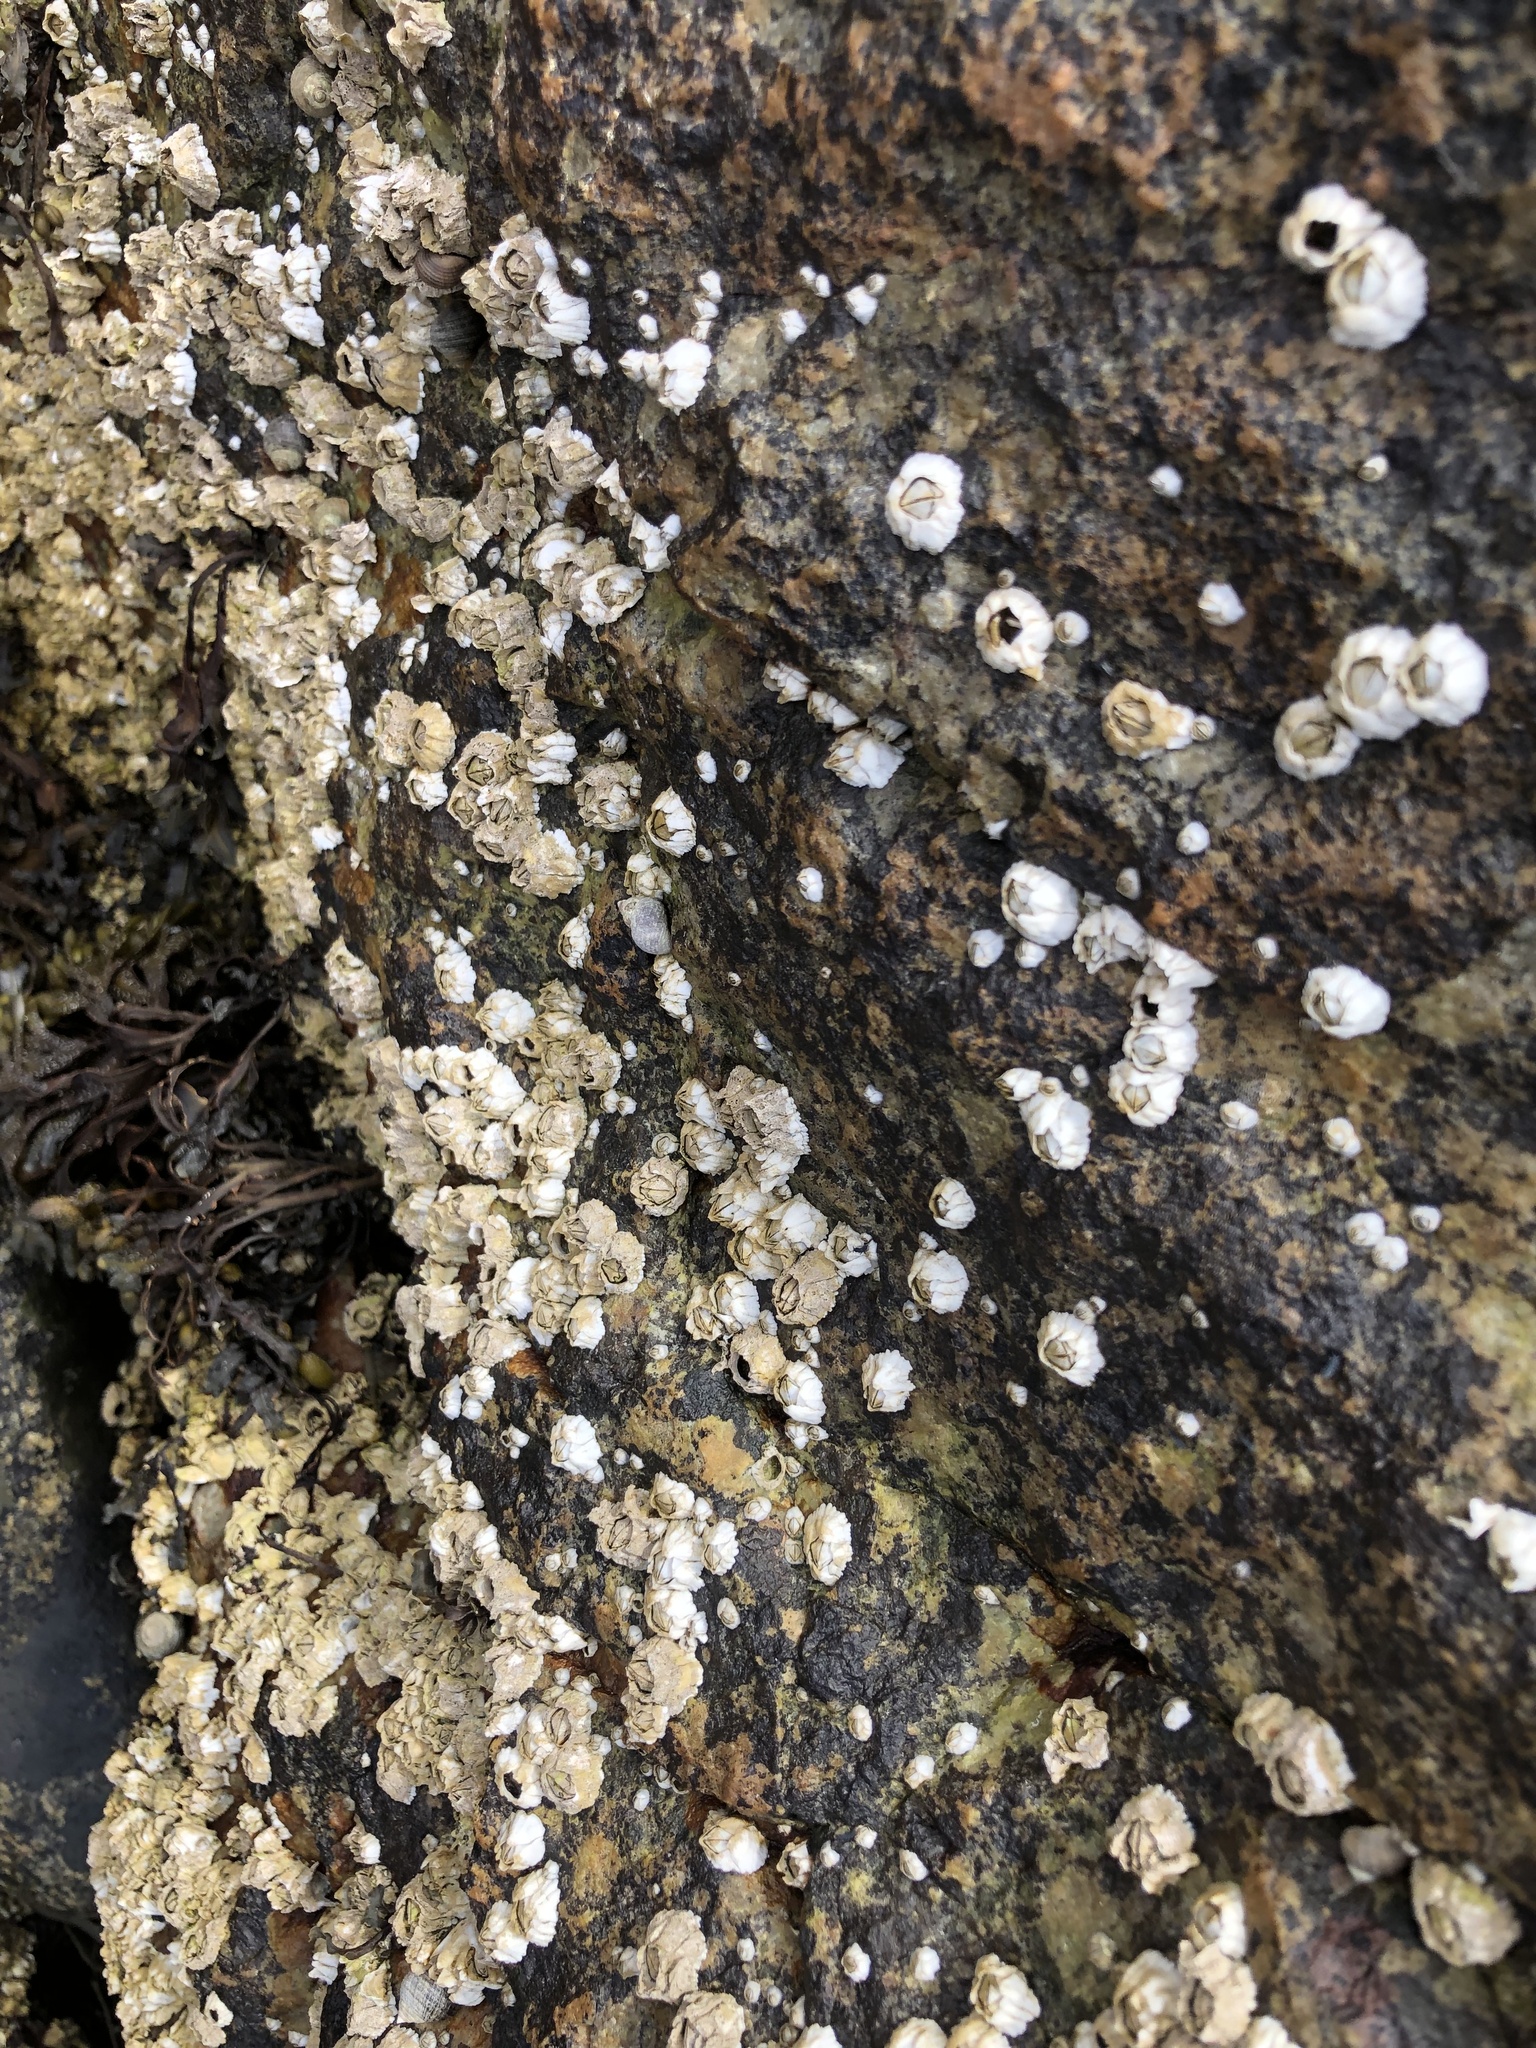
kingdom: Animalia
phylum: Arthropoda
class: Maxillopoda
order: Sessilia
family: Archaeobalanidae
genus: Semibalanus
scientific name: Semibalanus balanoides
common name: Acorn barnacle
